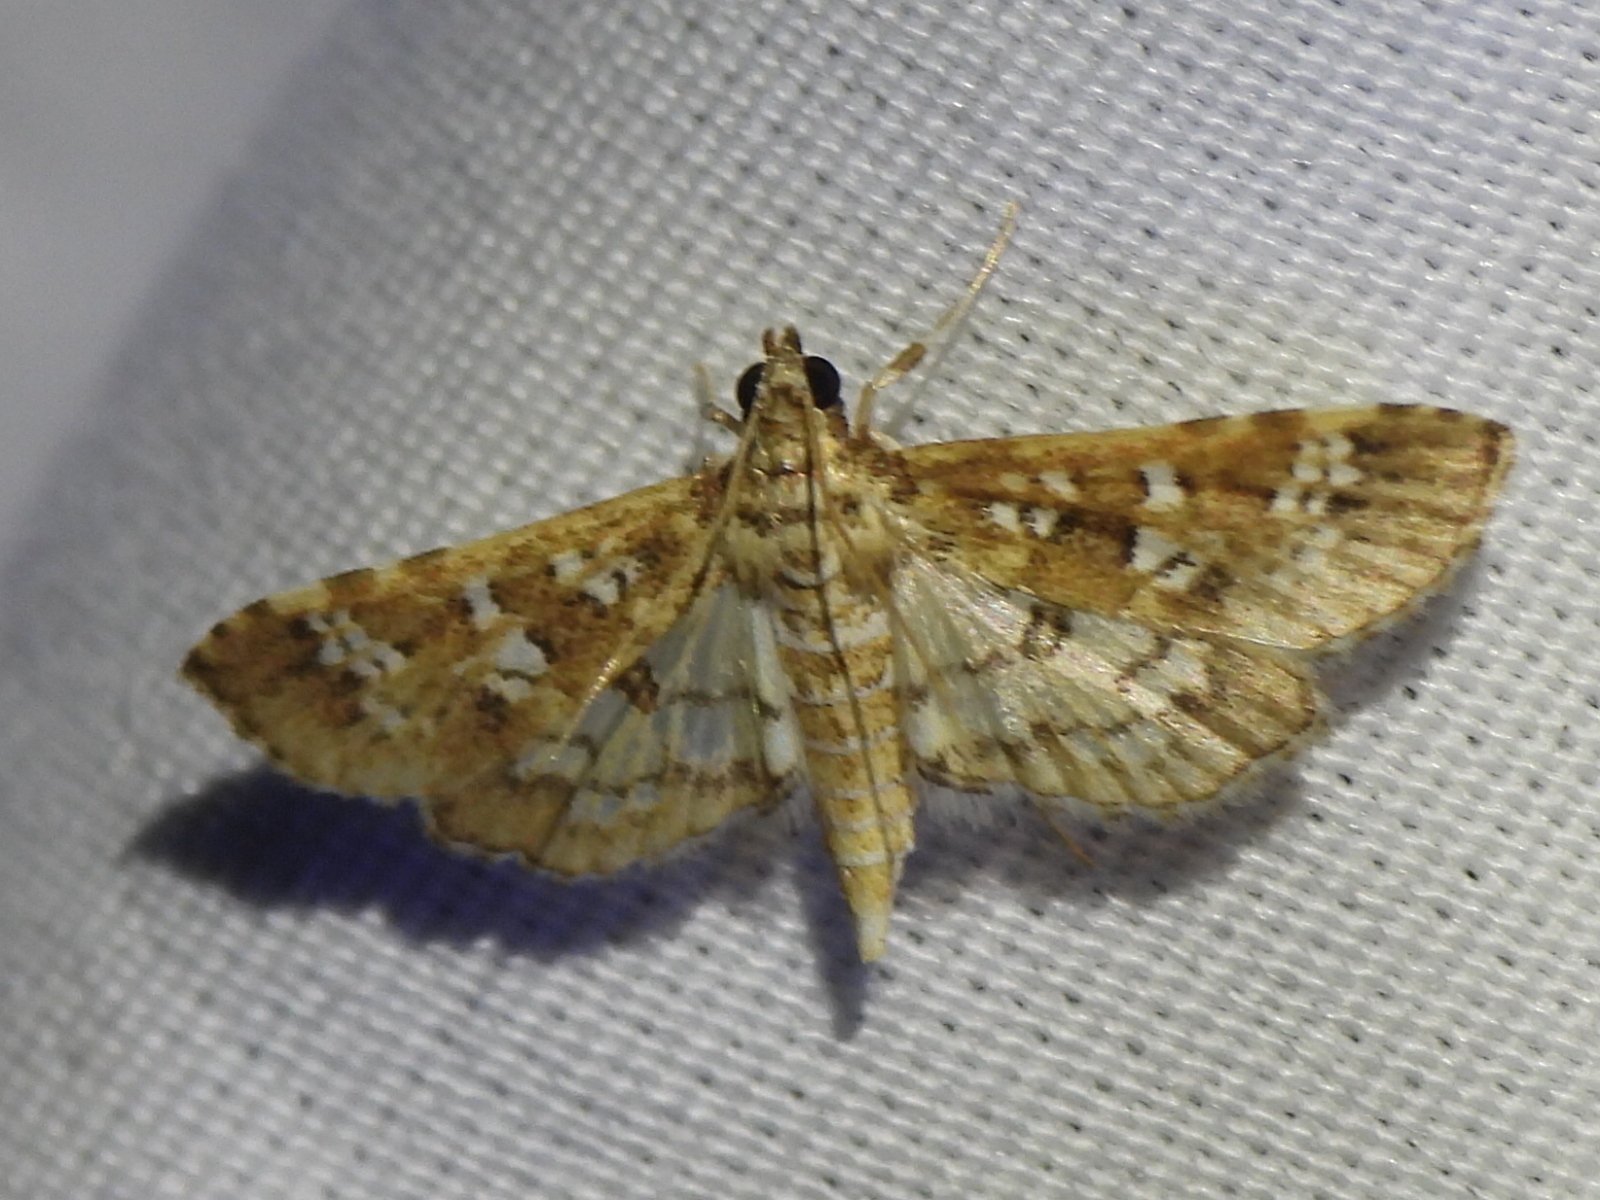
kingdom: Animalia
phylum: Arthropoda
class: Insecta
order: Lepidoptera
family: Crambidae
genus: Samea
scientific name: Samea multiplicalis
